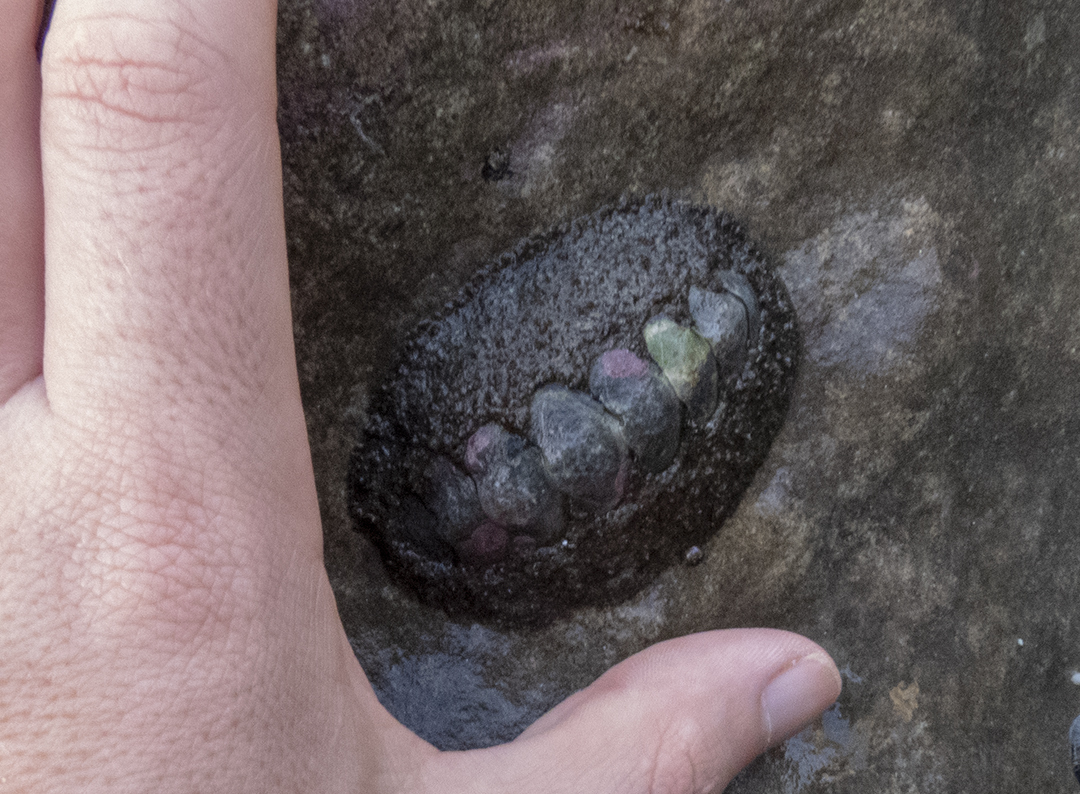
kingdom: Animalia
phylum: Mollusca
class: Polyplacophora
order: Chitonida
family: Mopaliidae
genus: Plaxiphora
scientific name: Plaxiphora obtecta
